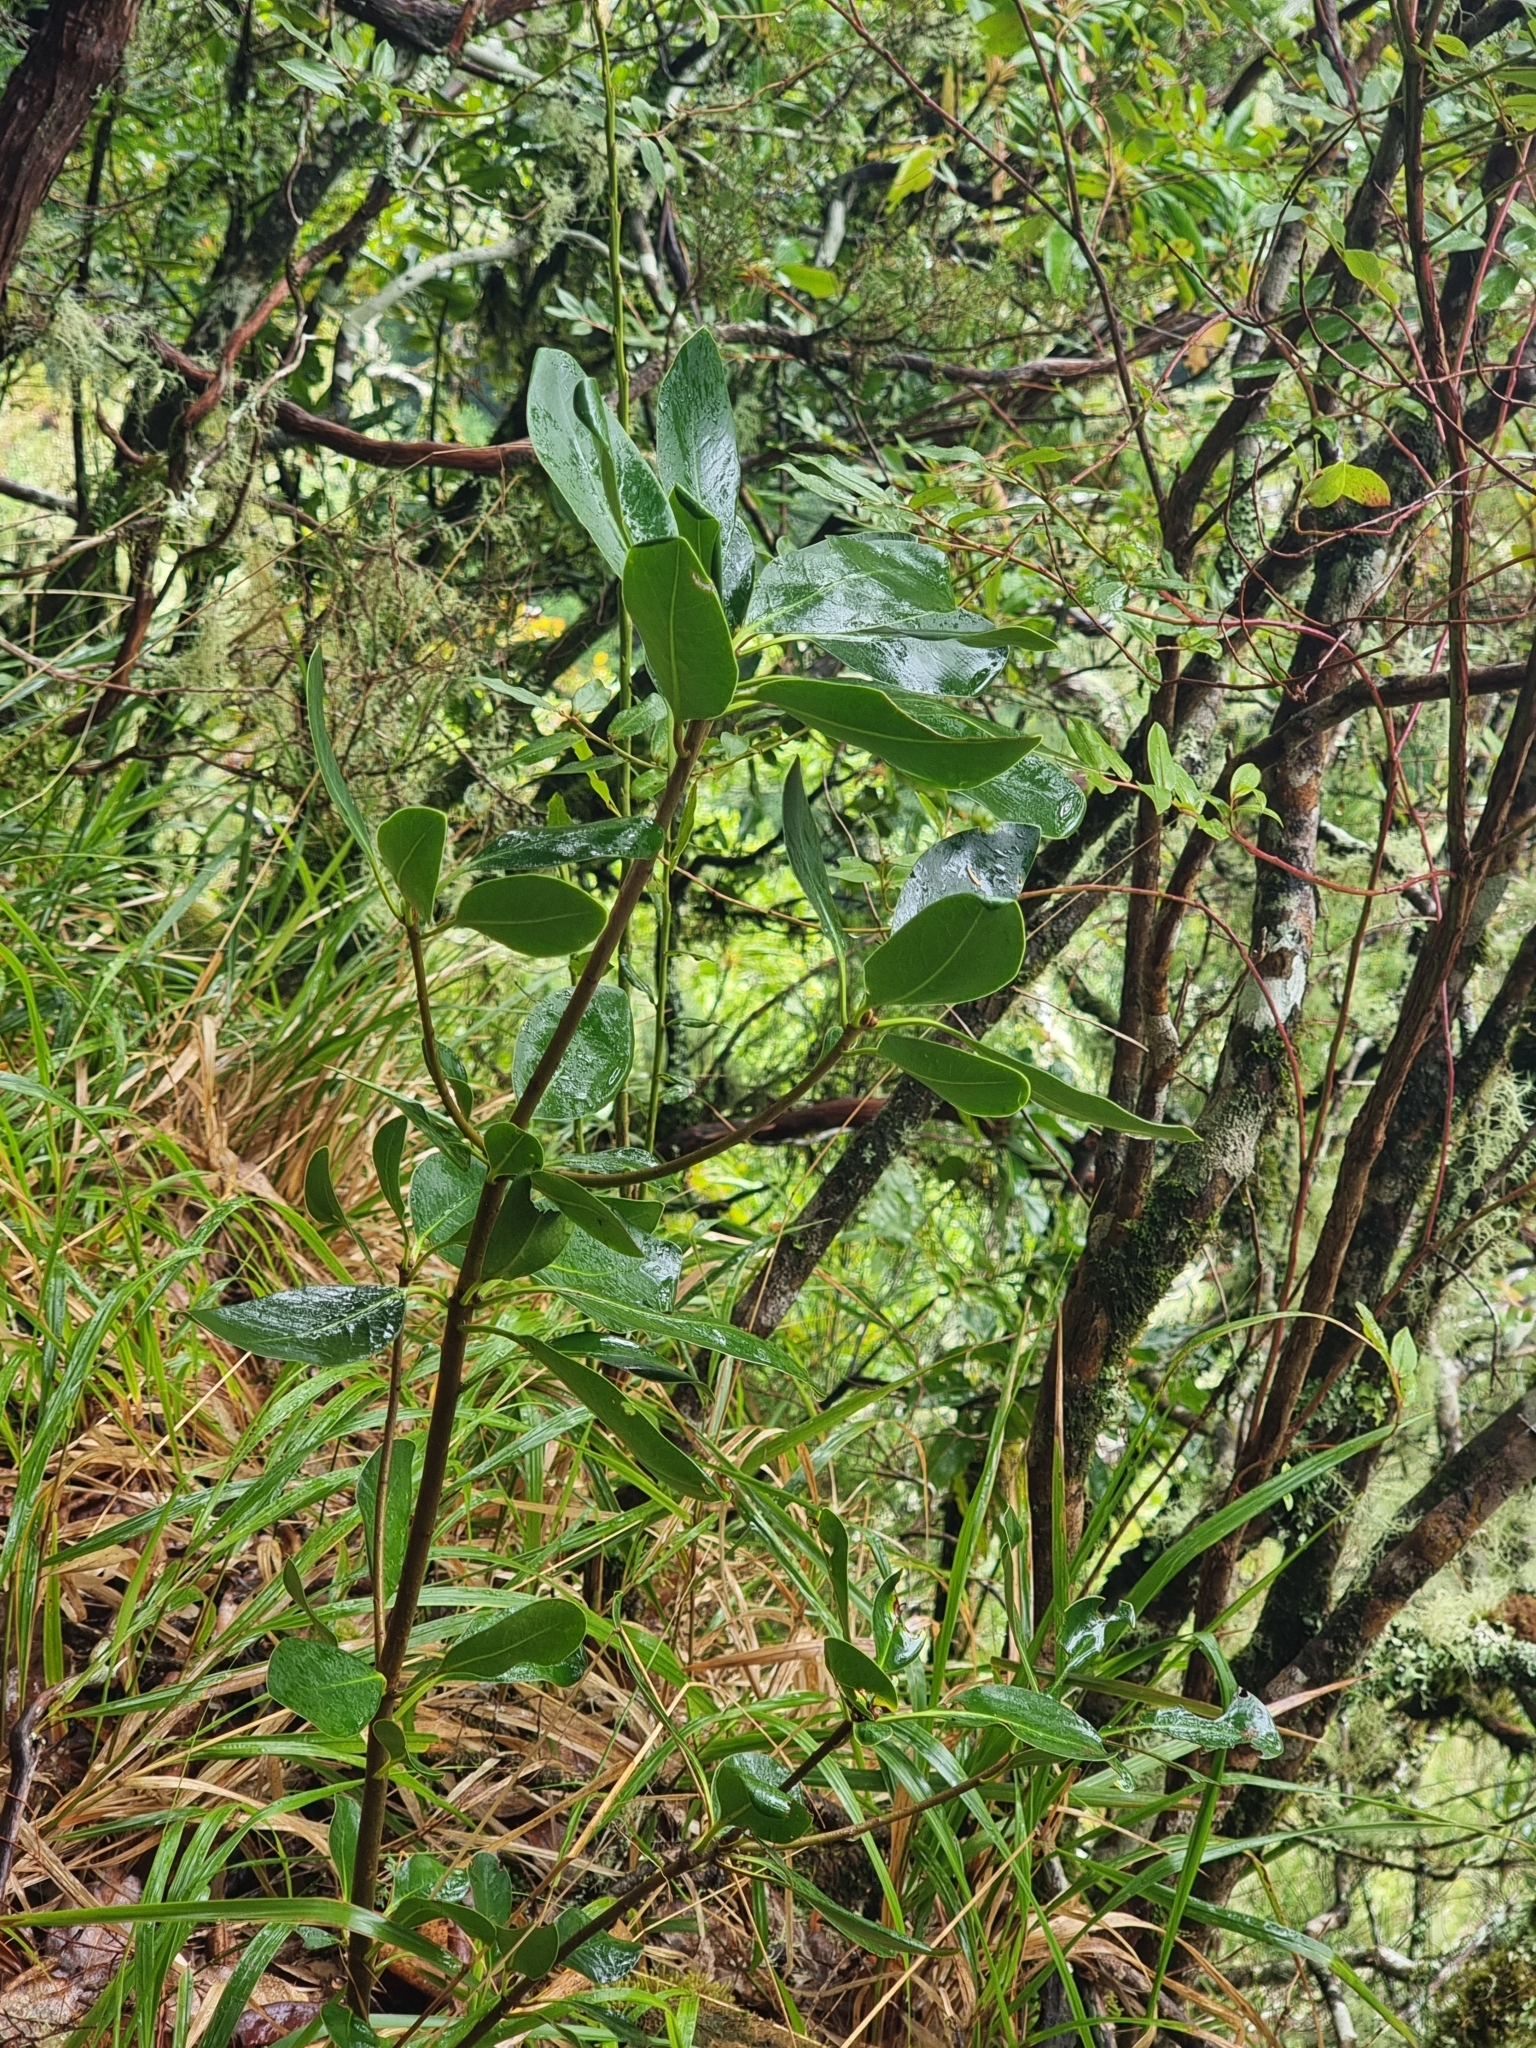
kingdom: Plantae
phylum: Tracheophyta
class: Magnoliopsida
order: Apiales
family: Pittosporaceae
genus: Pittosporum
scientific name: Pittosporum coriaceum
